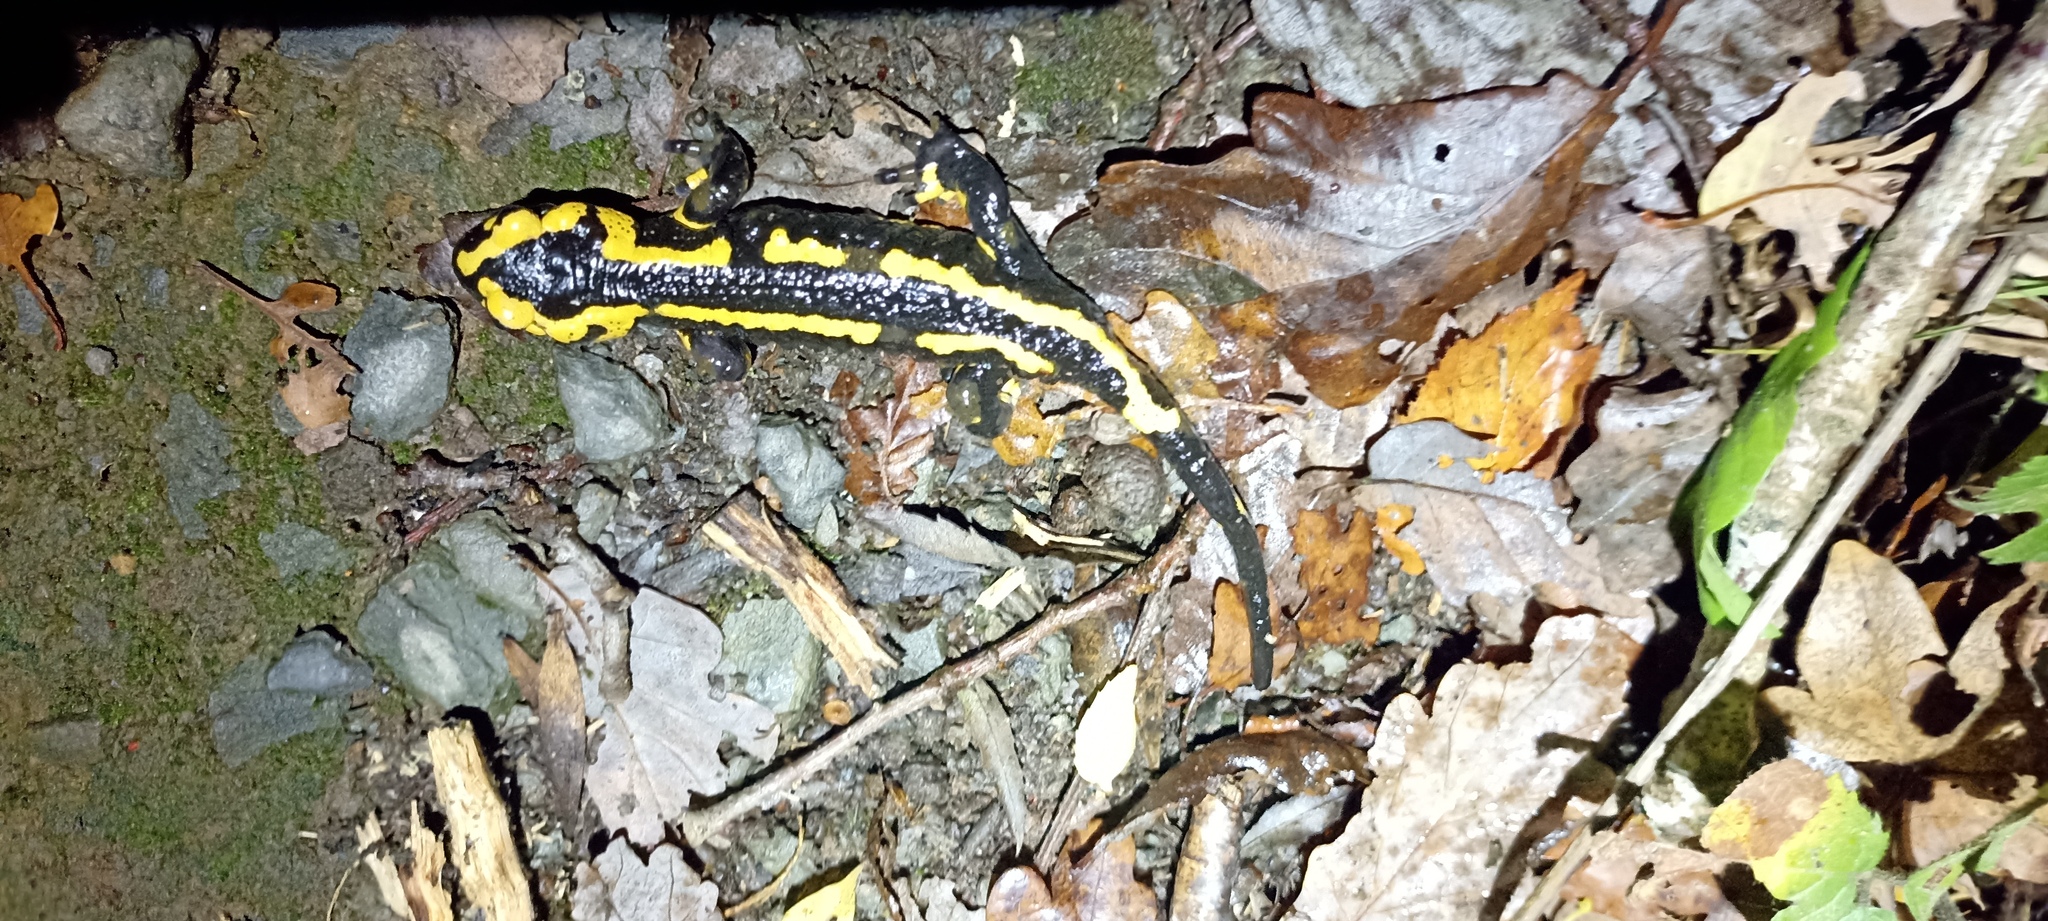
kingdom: Animalia
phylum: Chordata
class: Amphibia
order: Caudata
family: Salamandridae
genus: Salamandra
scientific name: Salamandra salamandra
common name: Fire salamander
